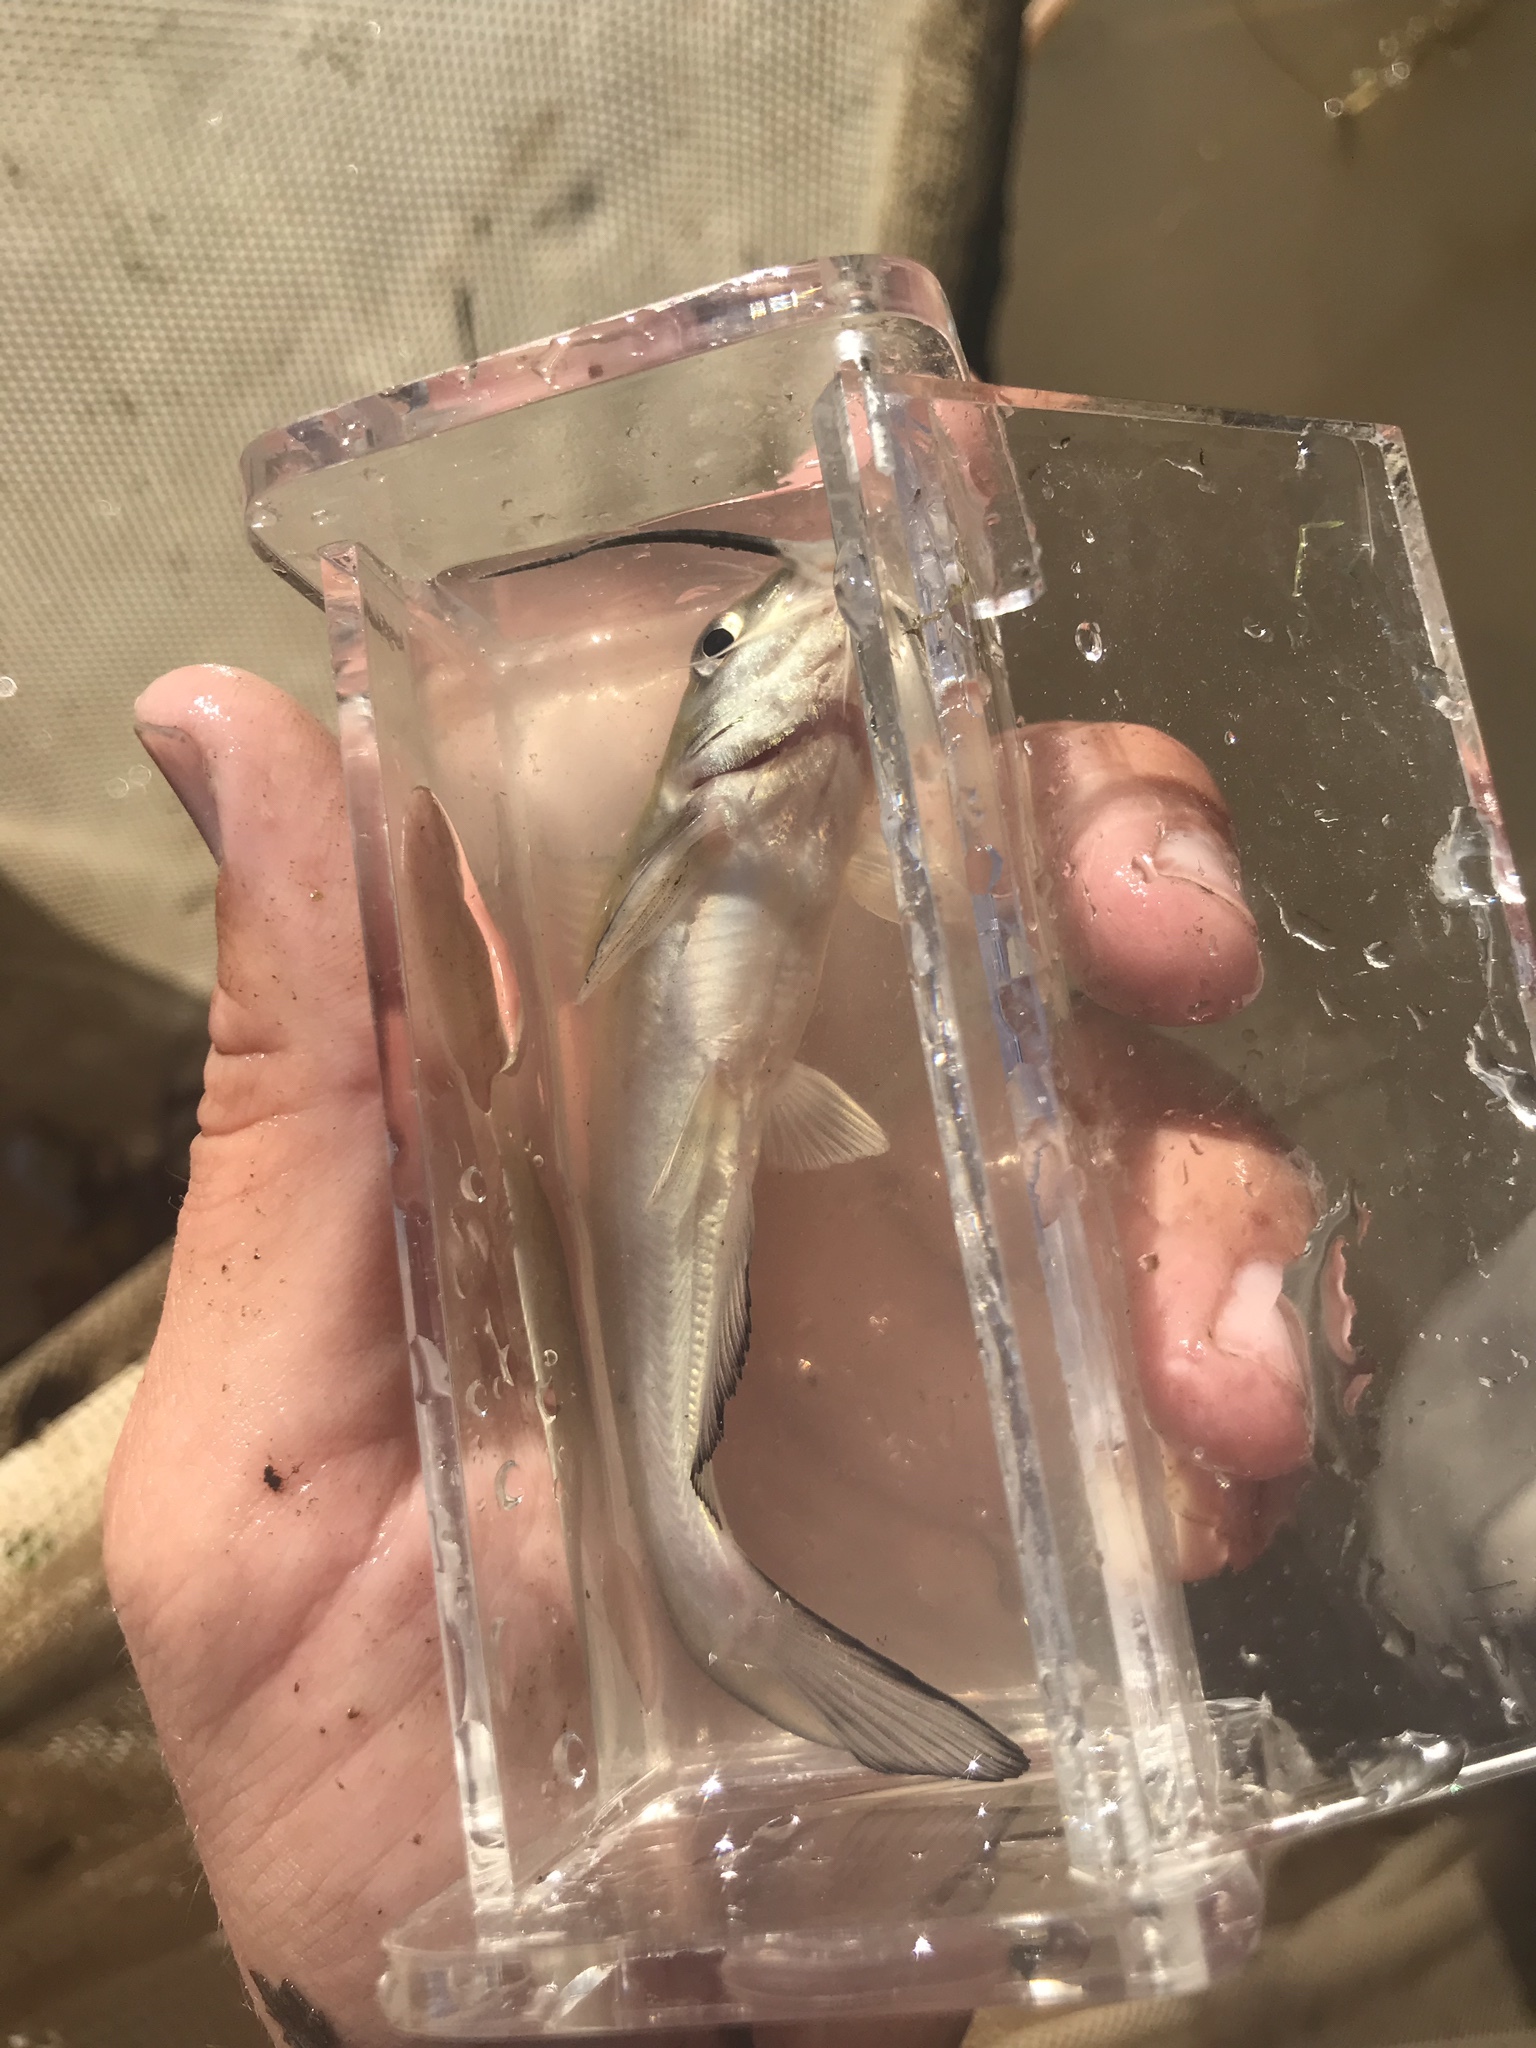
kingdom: Animalia
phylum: Chordata
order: Siluriformes
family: Ictaluridae
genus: Ictalurus
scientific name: Ictalurus punctatus
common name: Channel catfish
